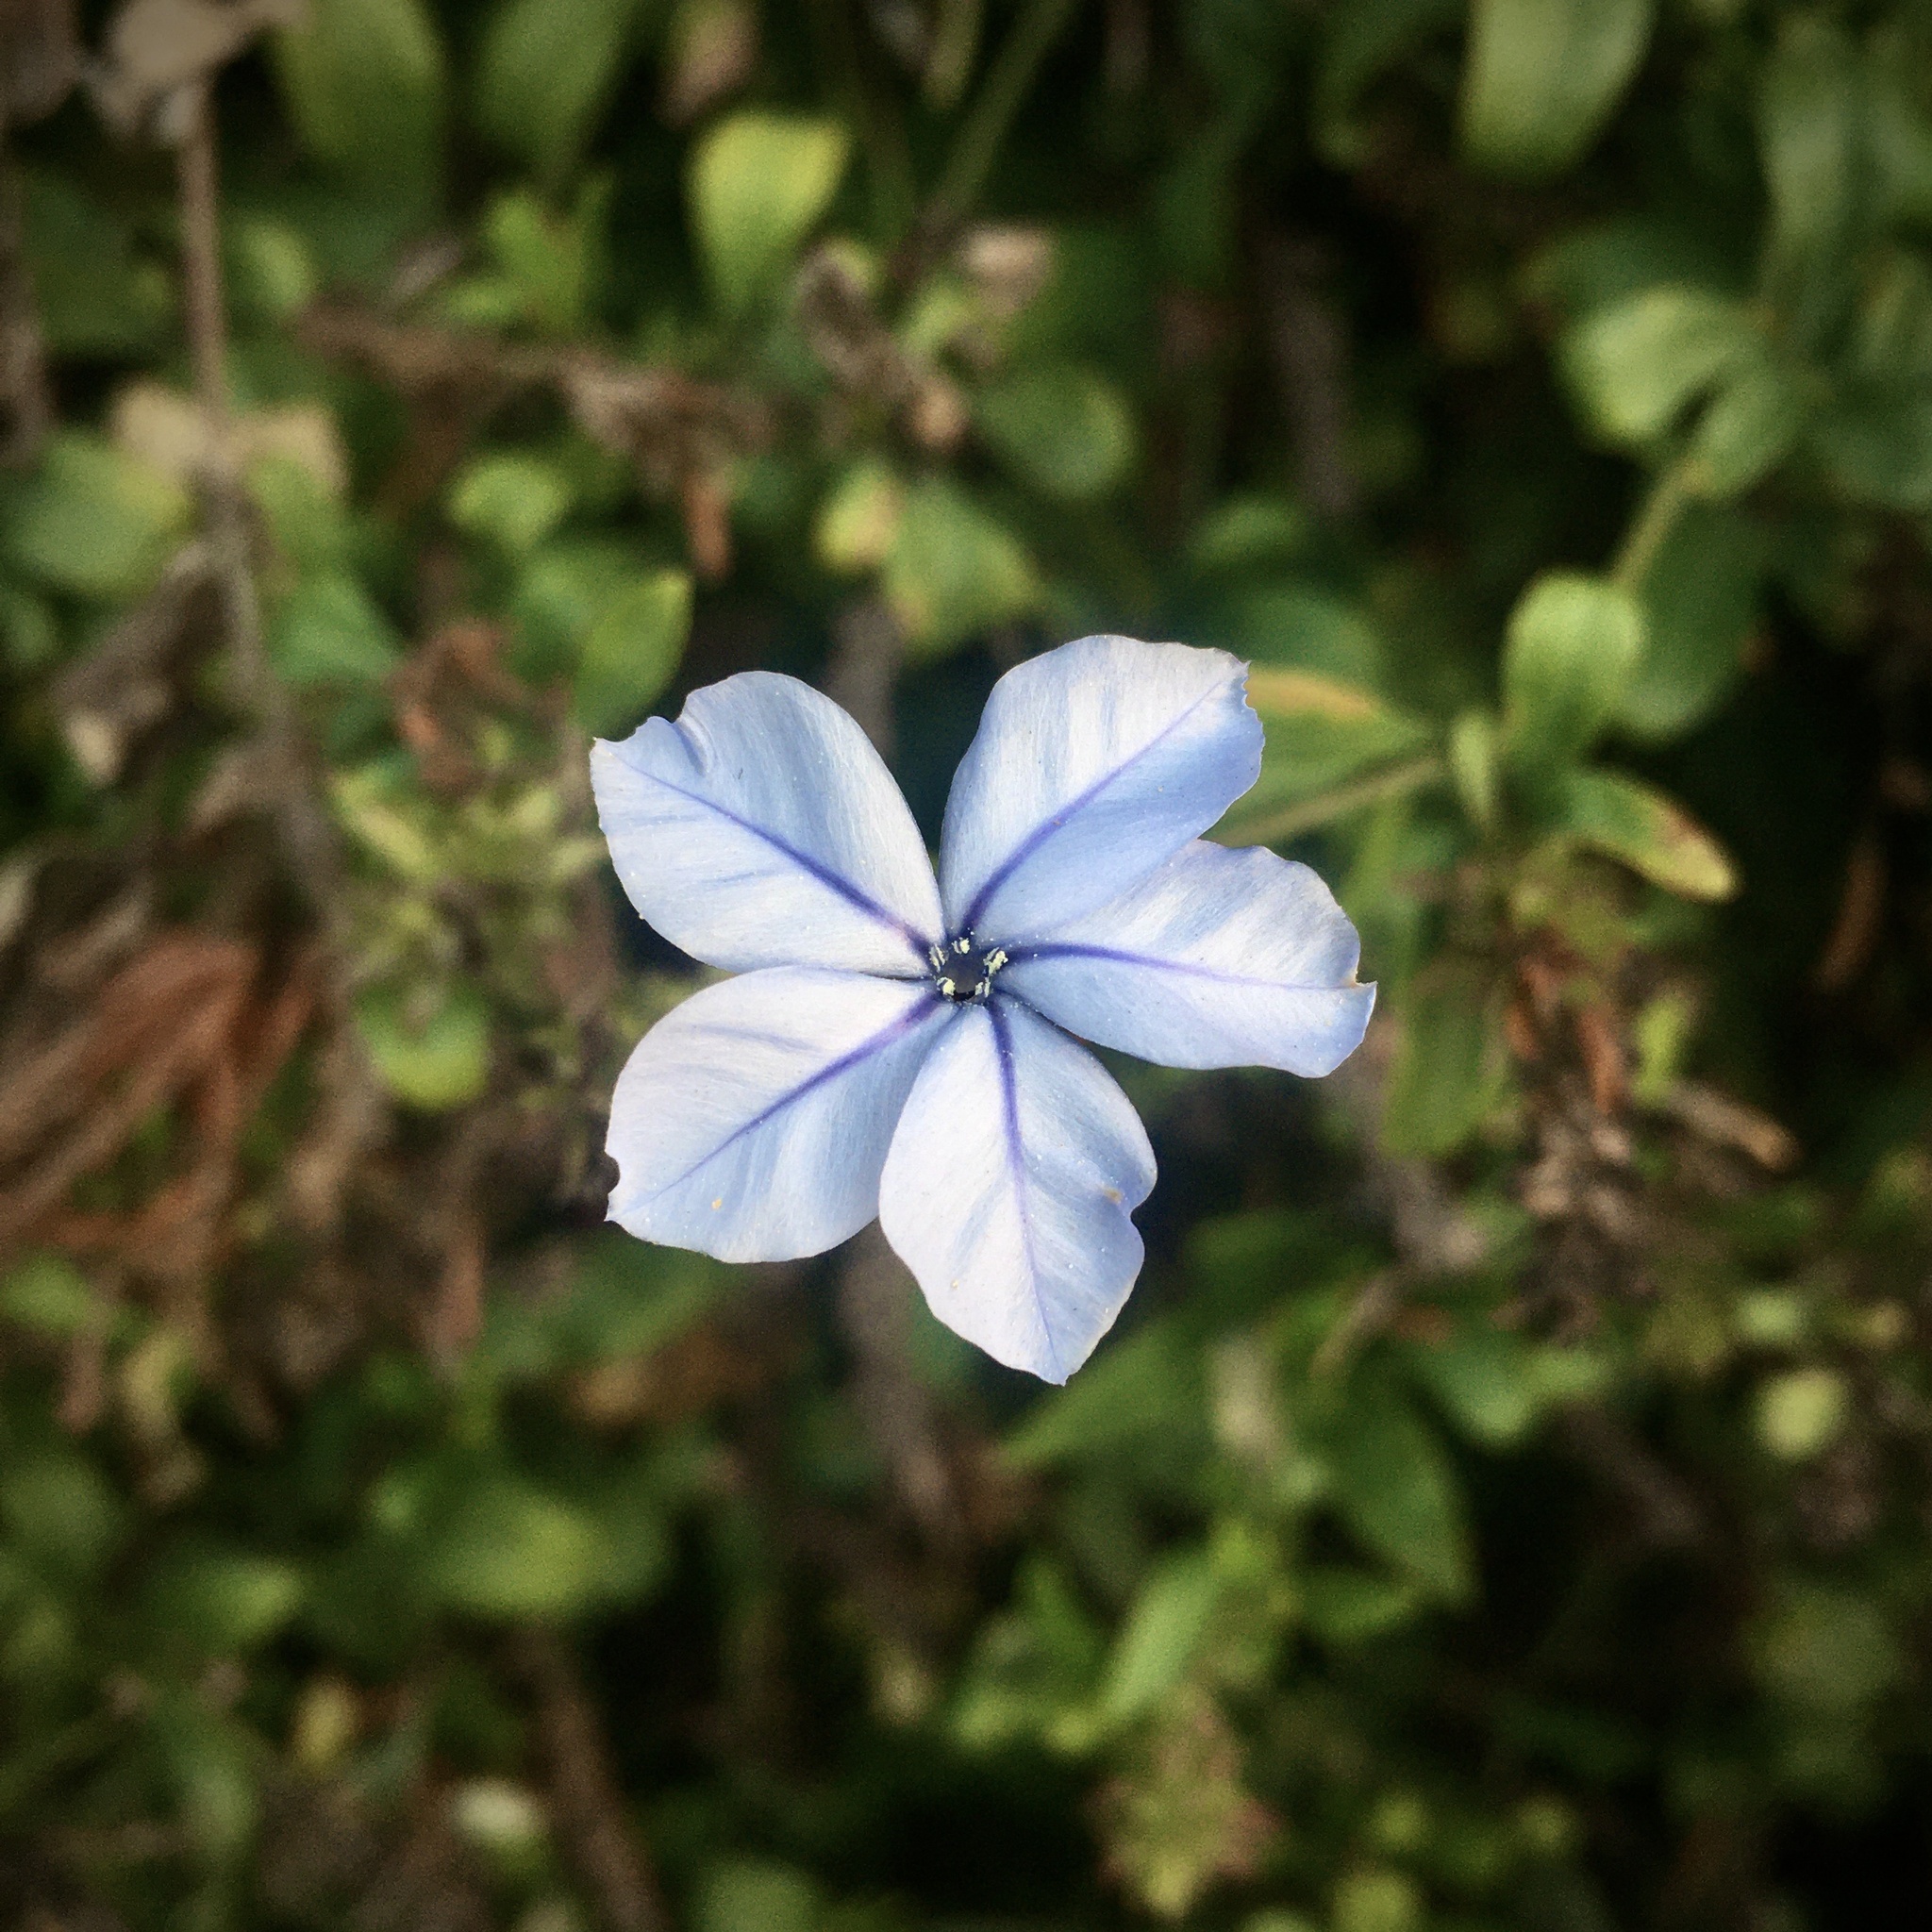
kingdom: Plantae
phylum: Tracheophyta
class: Magnoliopsida
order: Caryophyllales
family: Plumbaginaceae
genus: Plumbago
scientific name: Plumbago auriculata
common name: Cape leadwort
